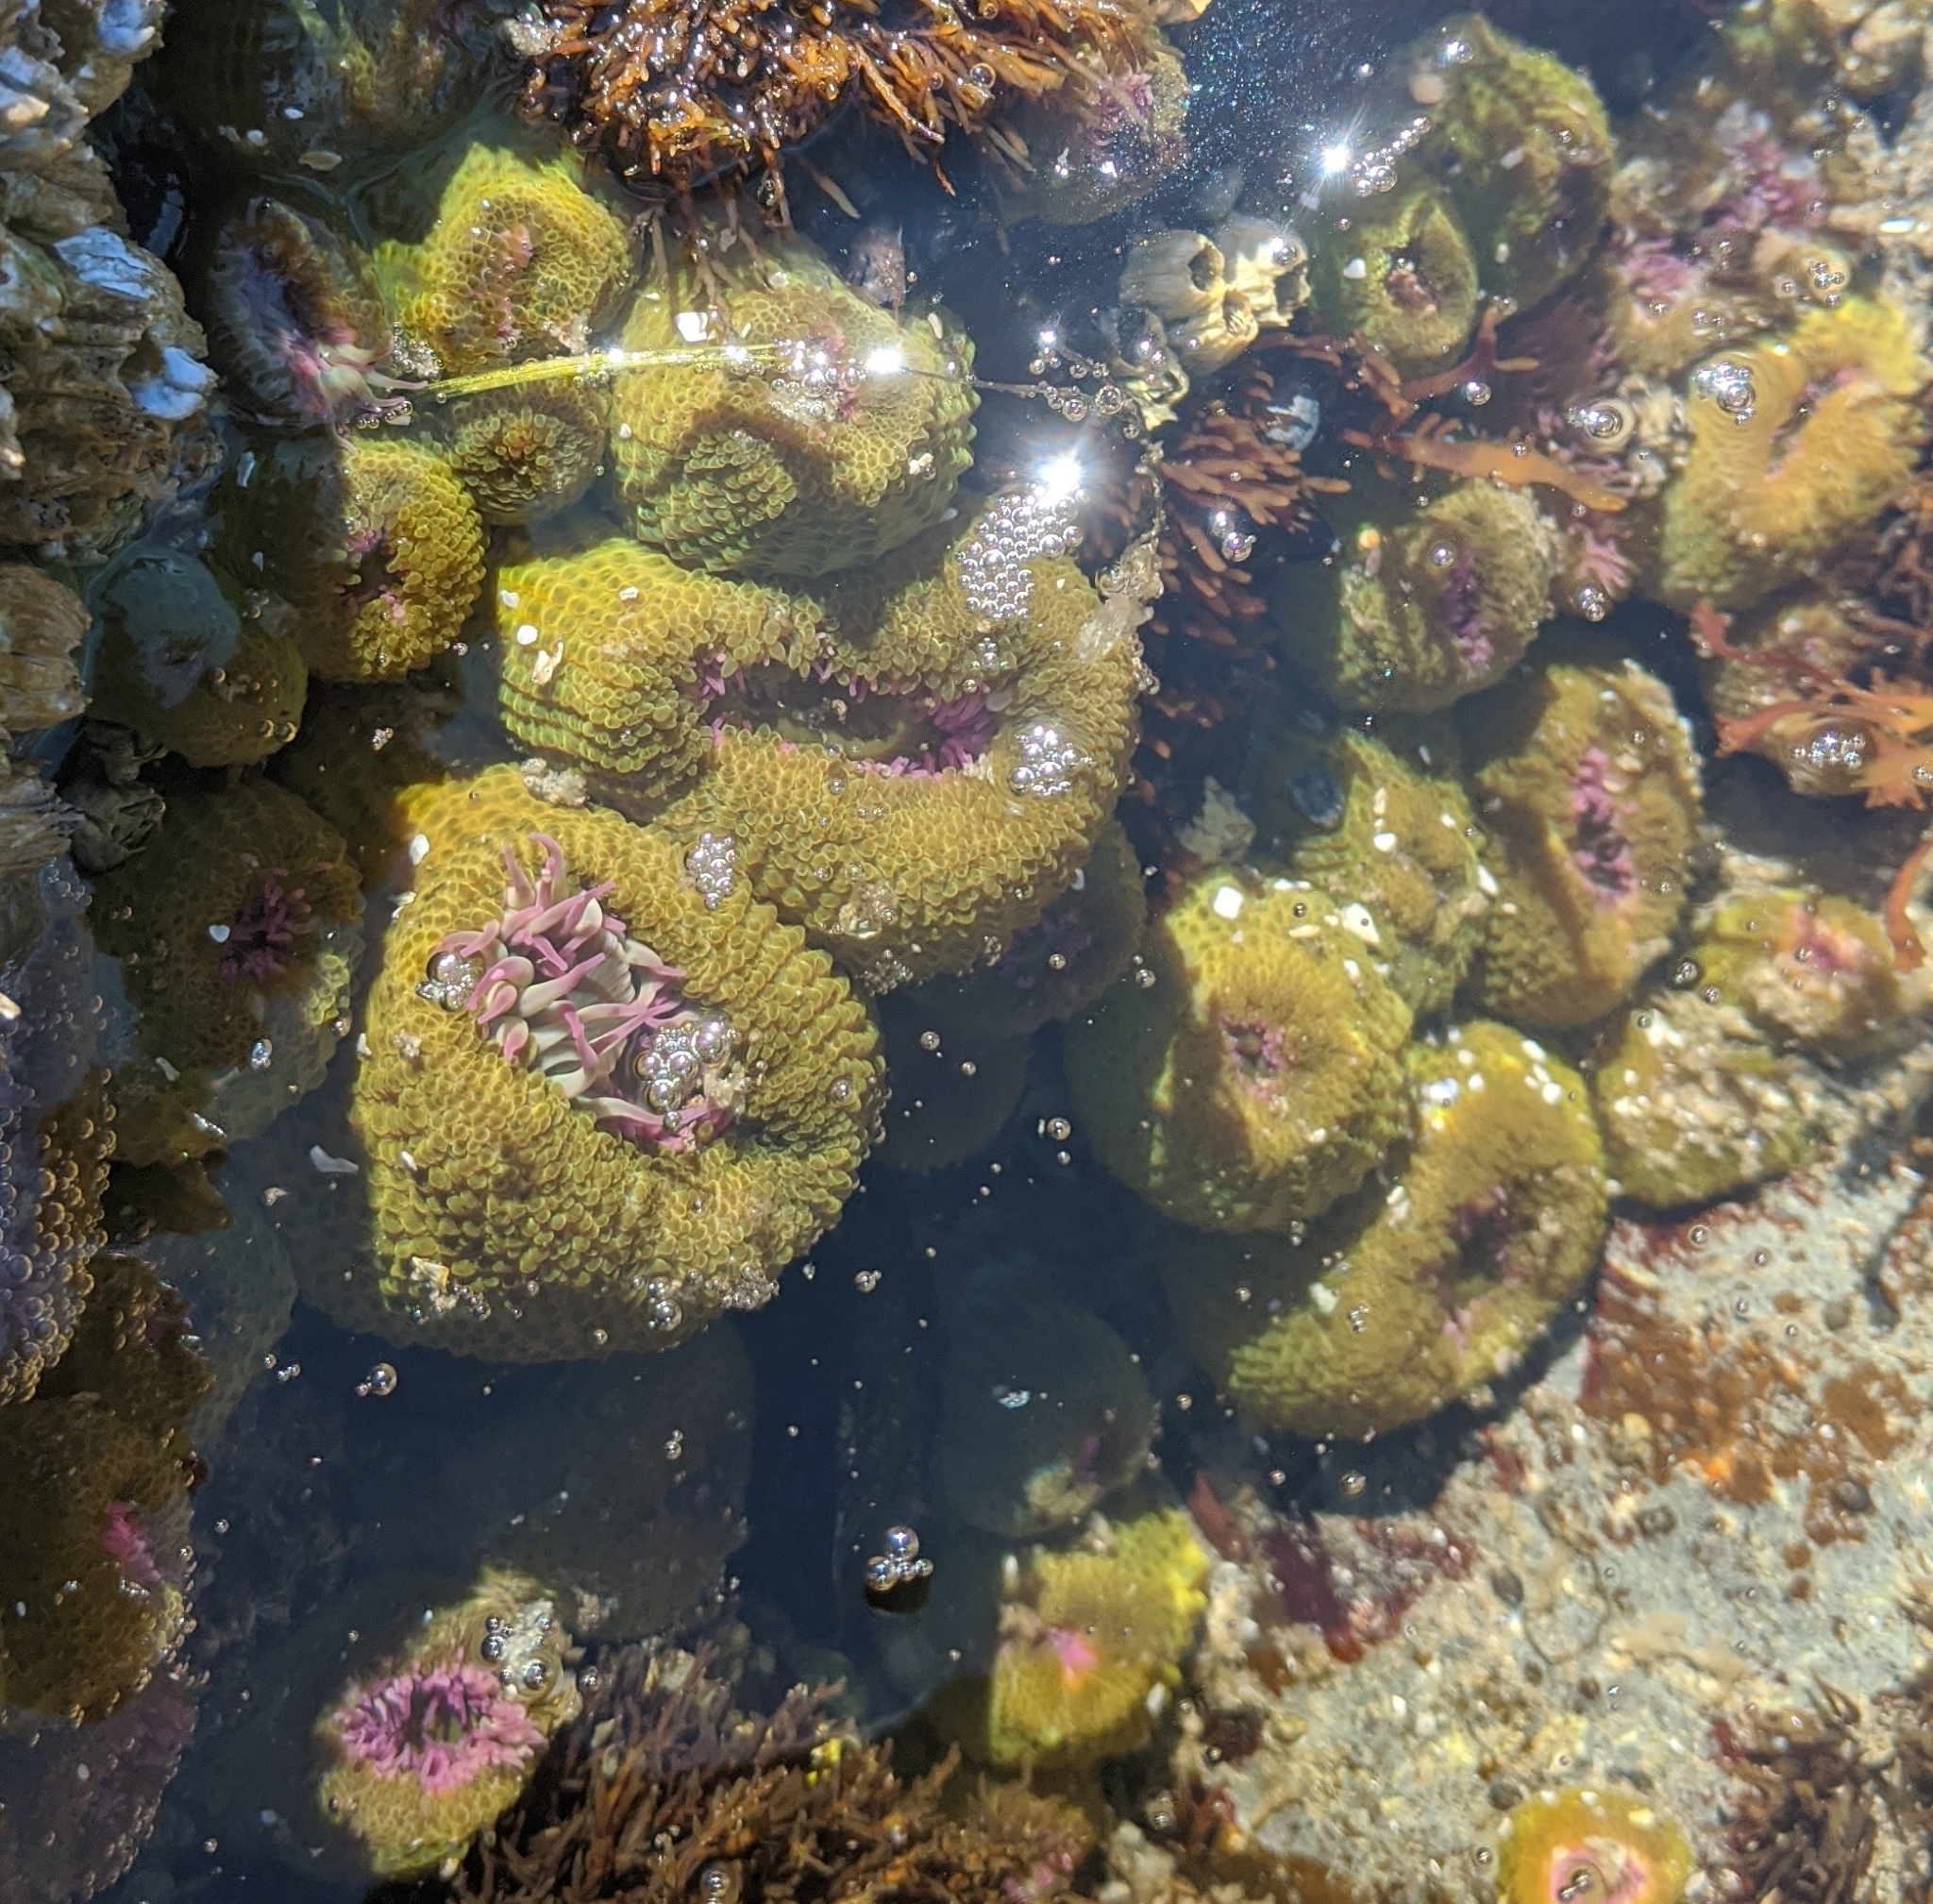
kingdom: Animalia
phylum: Cnidaria
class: Anthozoa
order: Actiniaria
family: Actiniidae
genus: Anthopleura
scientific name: Anthopleura elegantissima
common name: Clonal anemone
